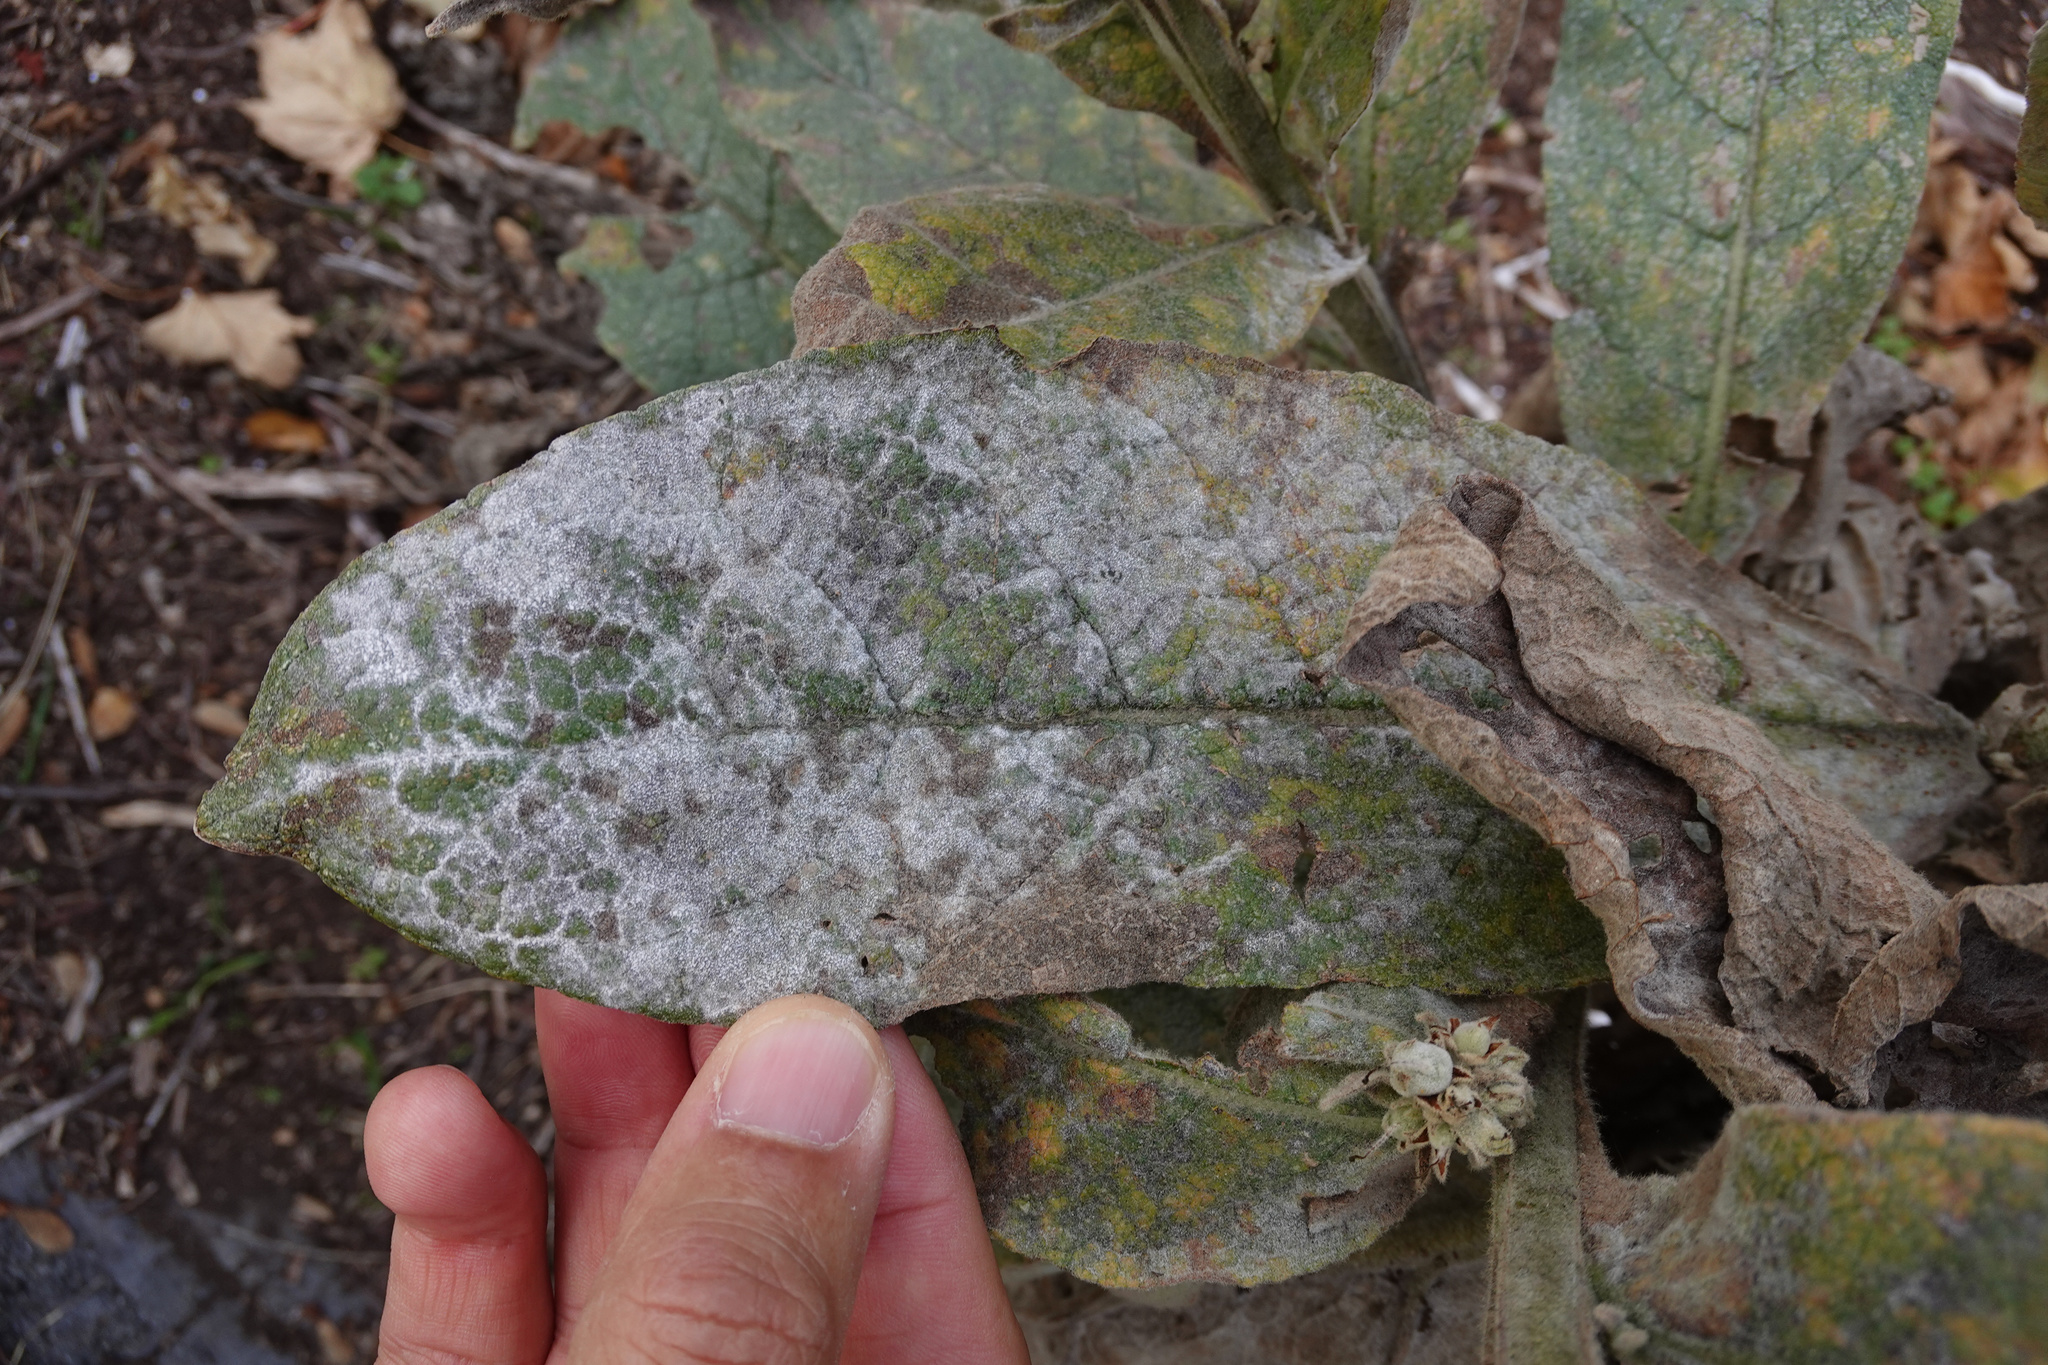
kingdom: Fungi
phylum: Ascomycota
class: Leotiomycetes
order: Helotiales
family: Erysiphaceae
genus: Golovinomyces
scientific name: Golovinomyces verbasci
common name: Powdery mildew
